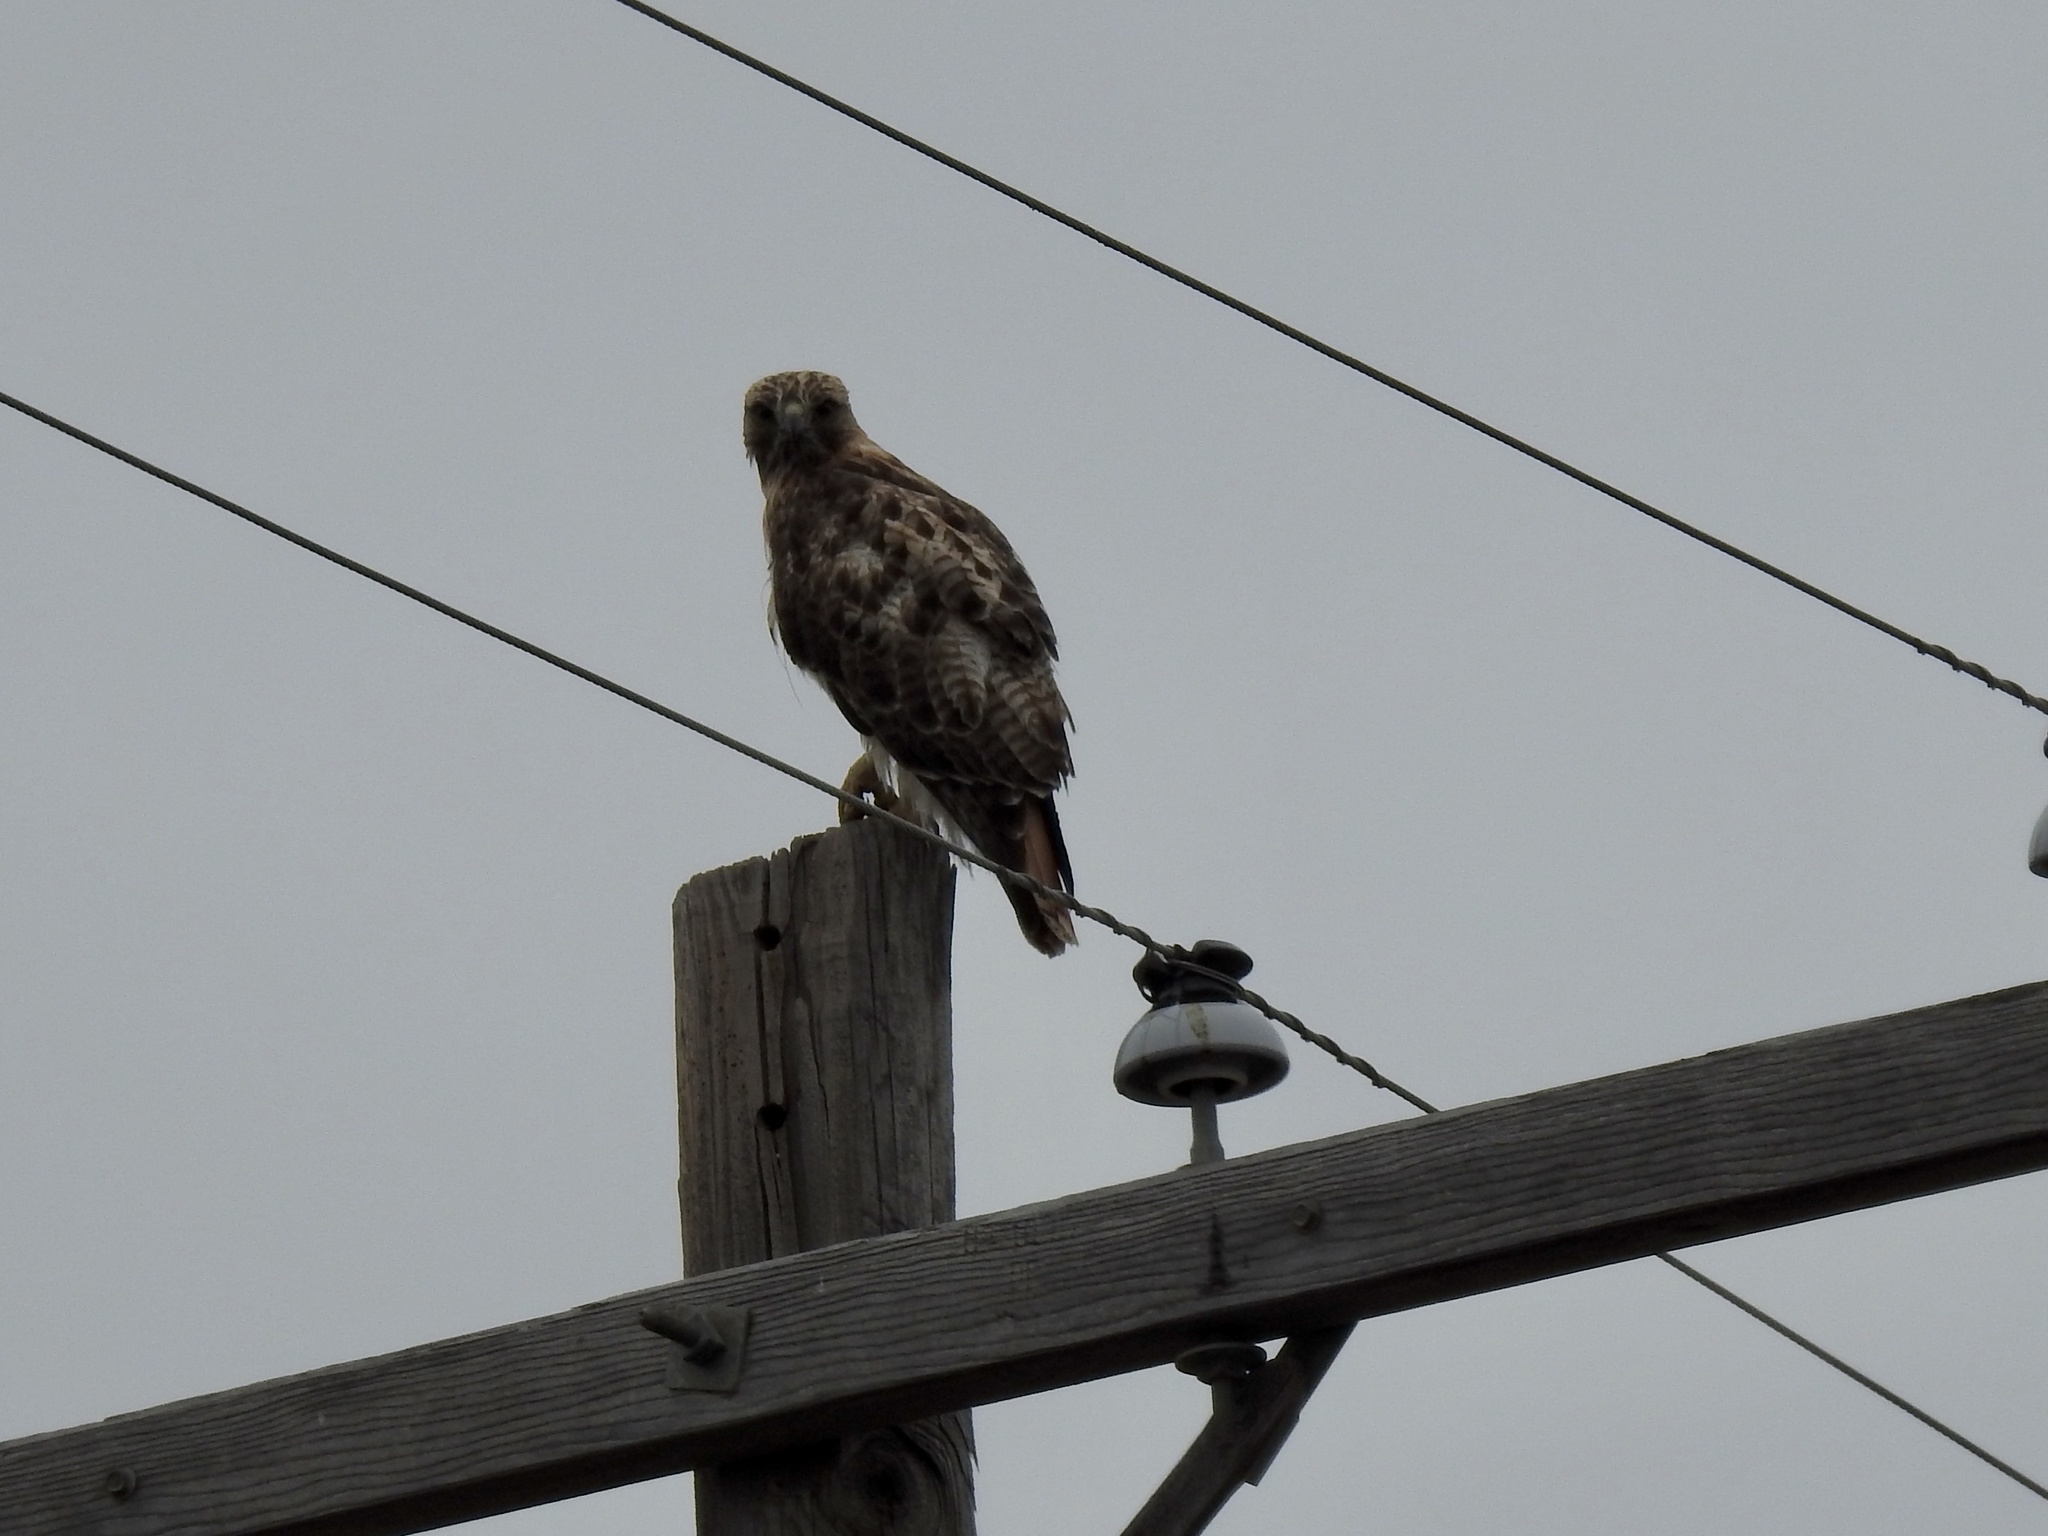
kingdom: Animalia
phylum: Chordata
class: Aves
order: Accipitriformes
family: Accipitridae
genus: Buteo
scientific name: Buteo jamaicensis
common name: Red-tailed hawk
